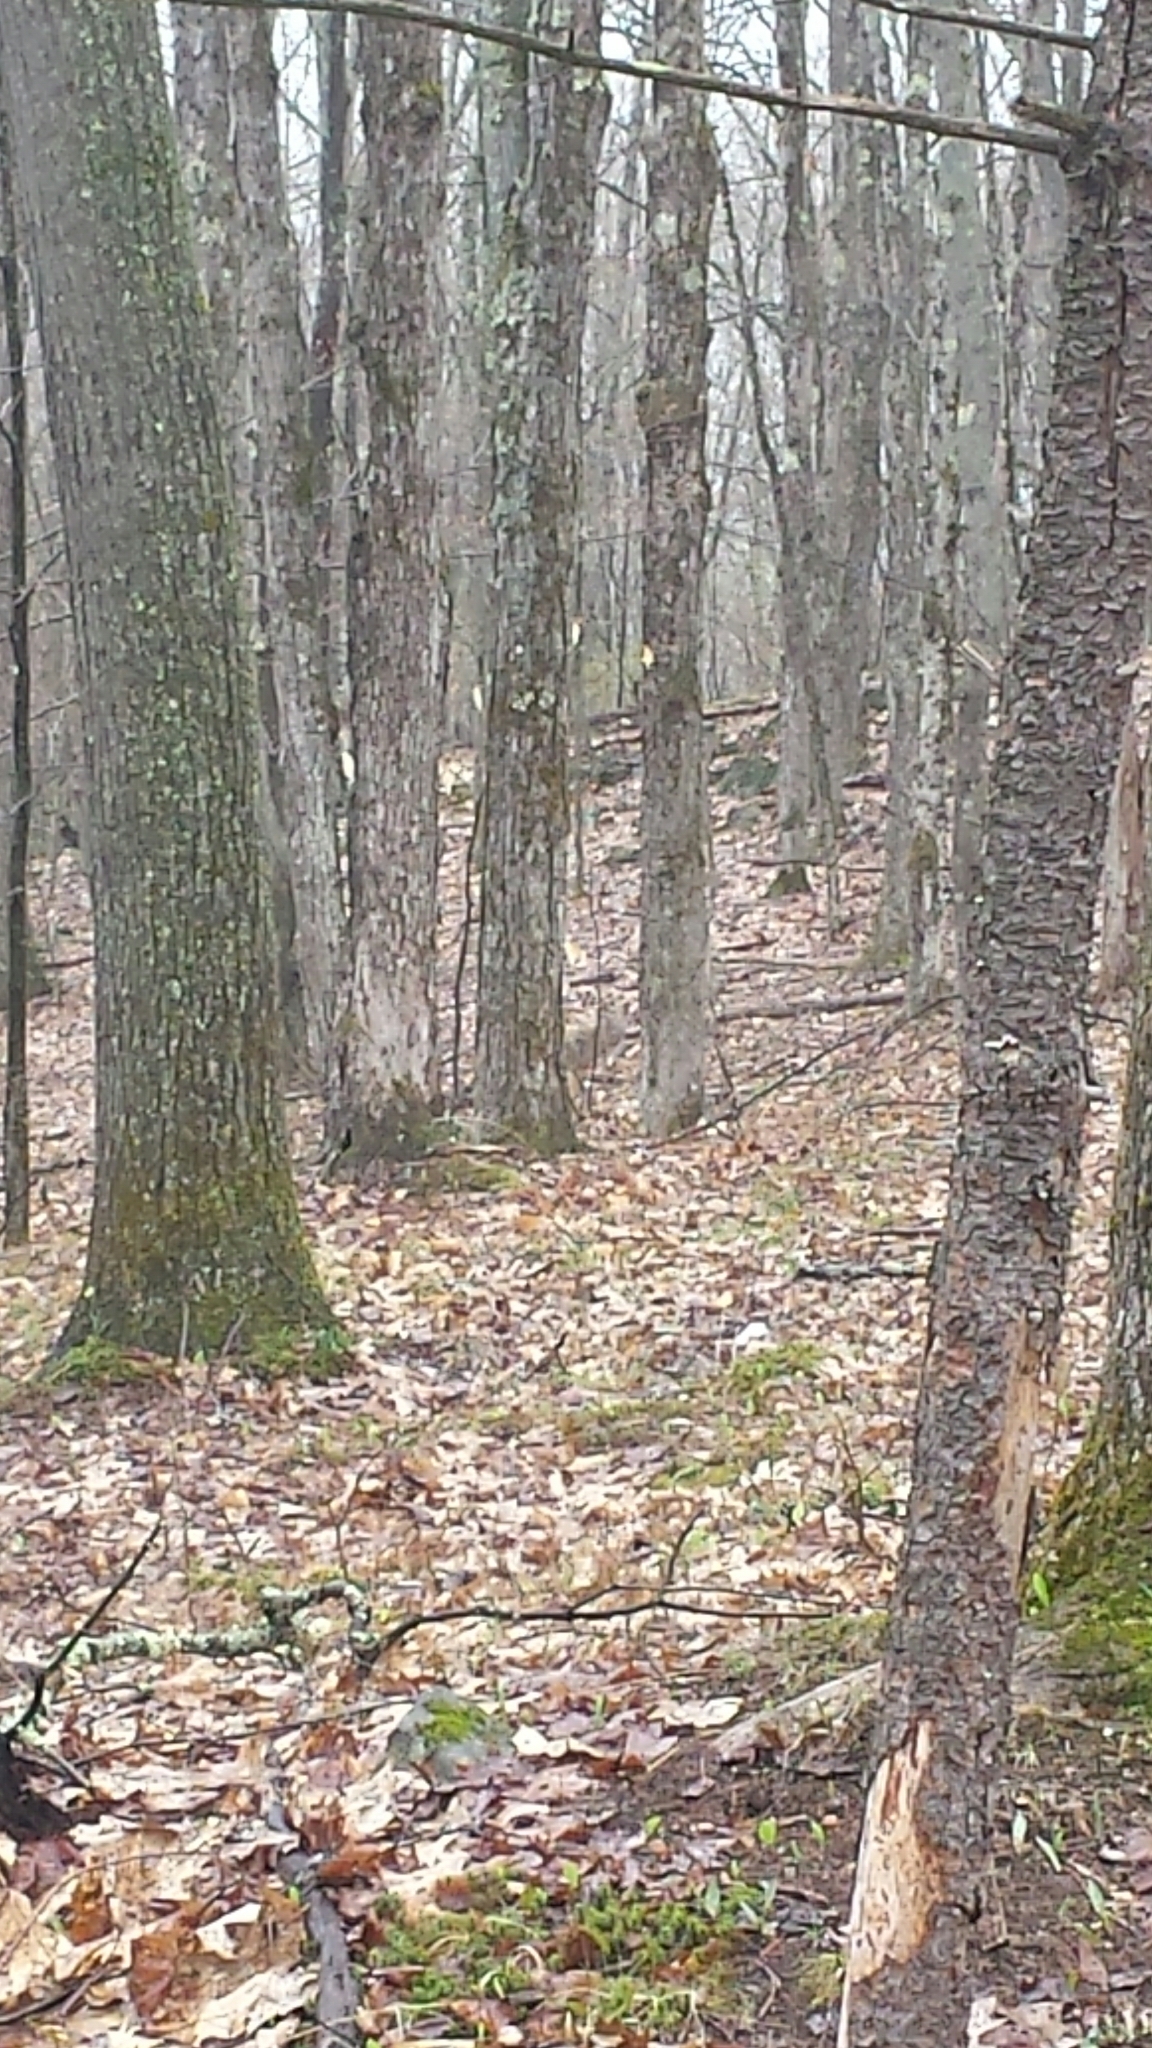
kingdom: Animalia
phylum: Chordata
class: Mammalia
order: Carnivora
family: Canidae
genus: Canis
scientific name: Canis latrans
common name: Coyote
